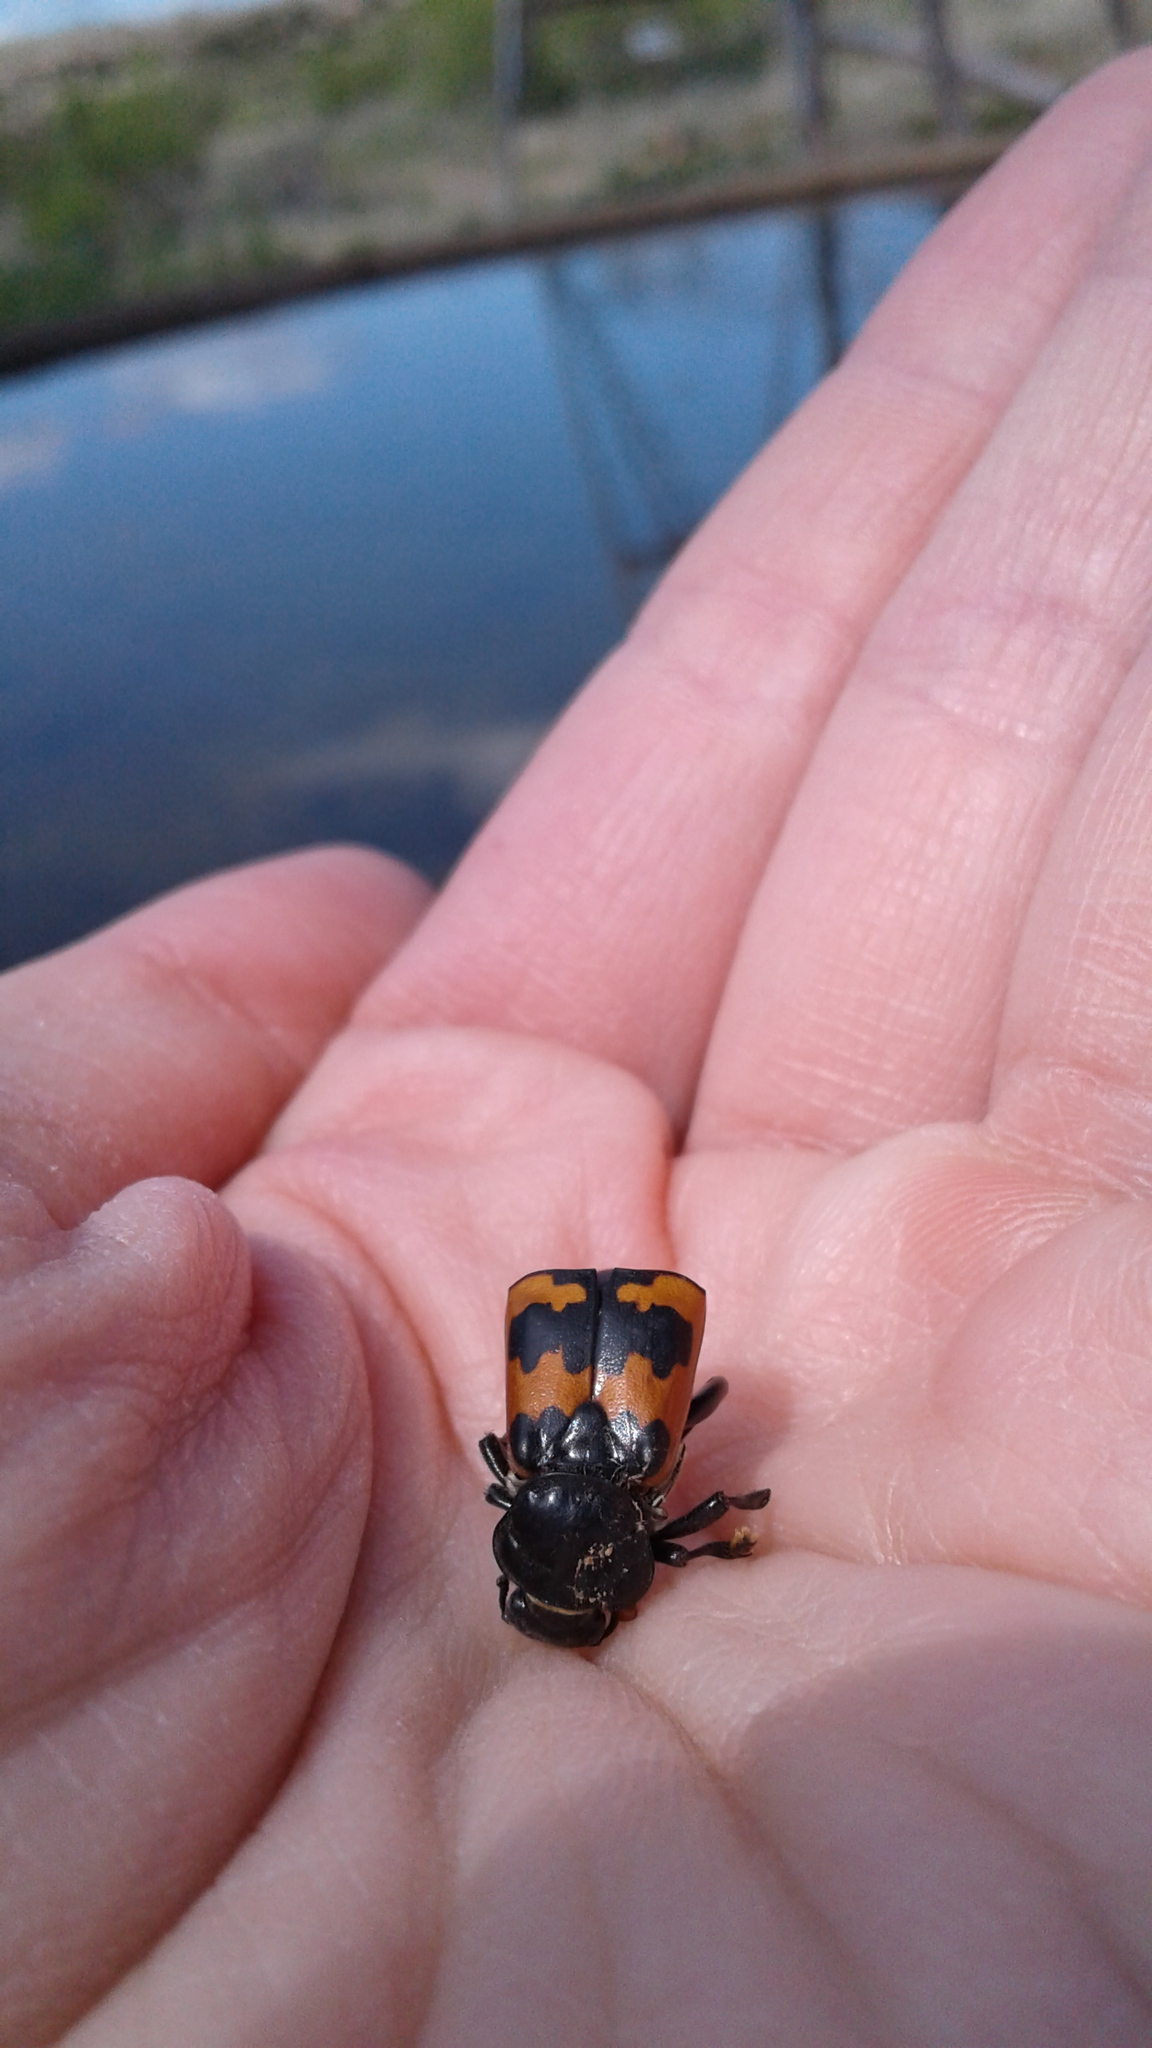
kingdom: Animalia
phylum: Arthropoda
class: Insecta
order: Coleoptera
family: Staphylinidae
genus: Nicrophorus
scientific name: Nicrophorus marginatus
